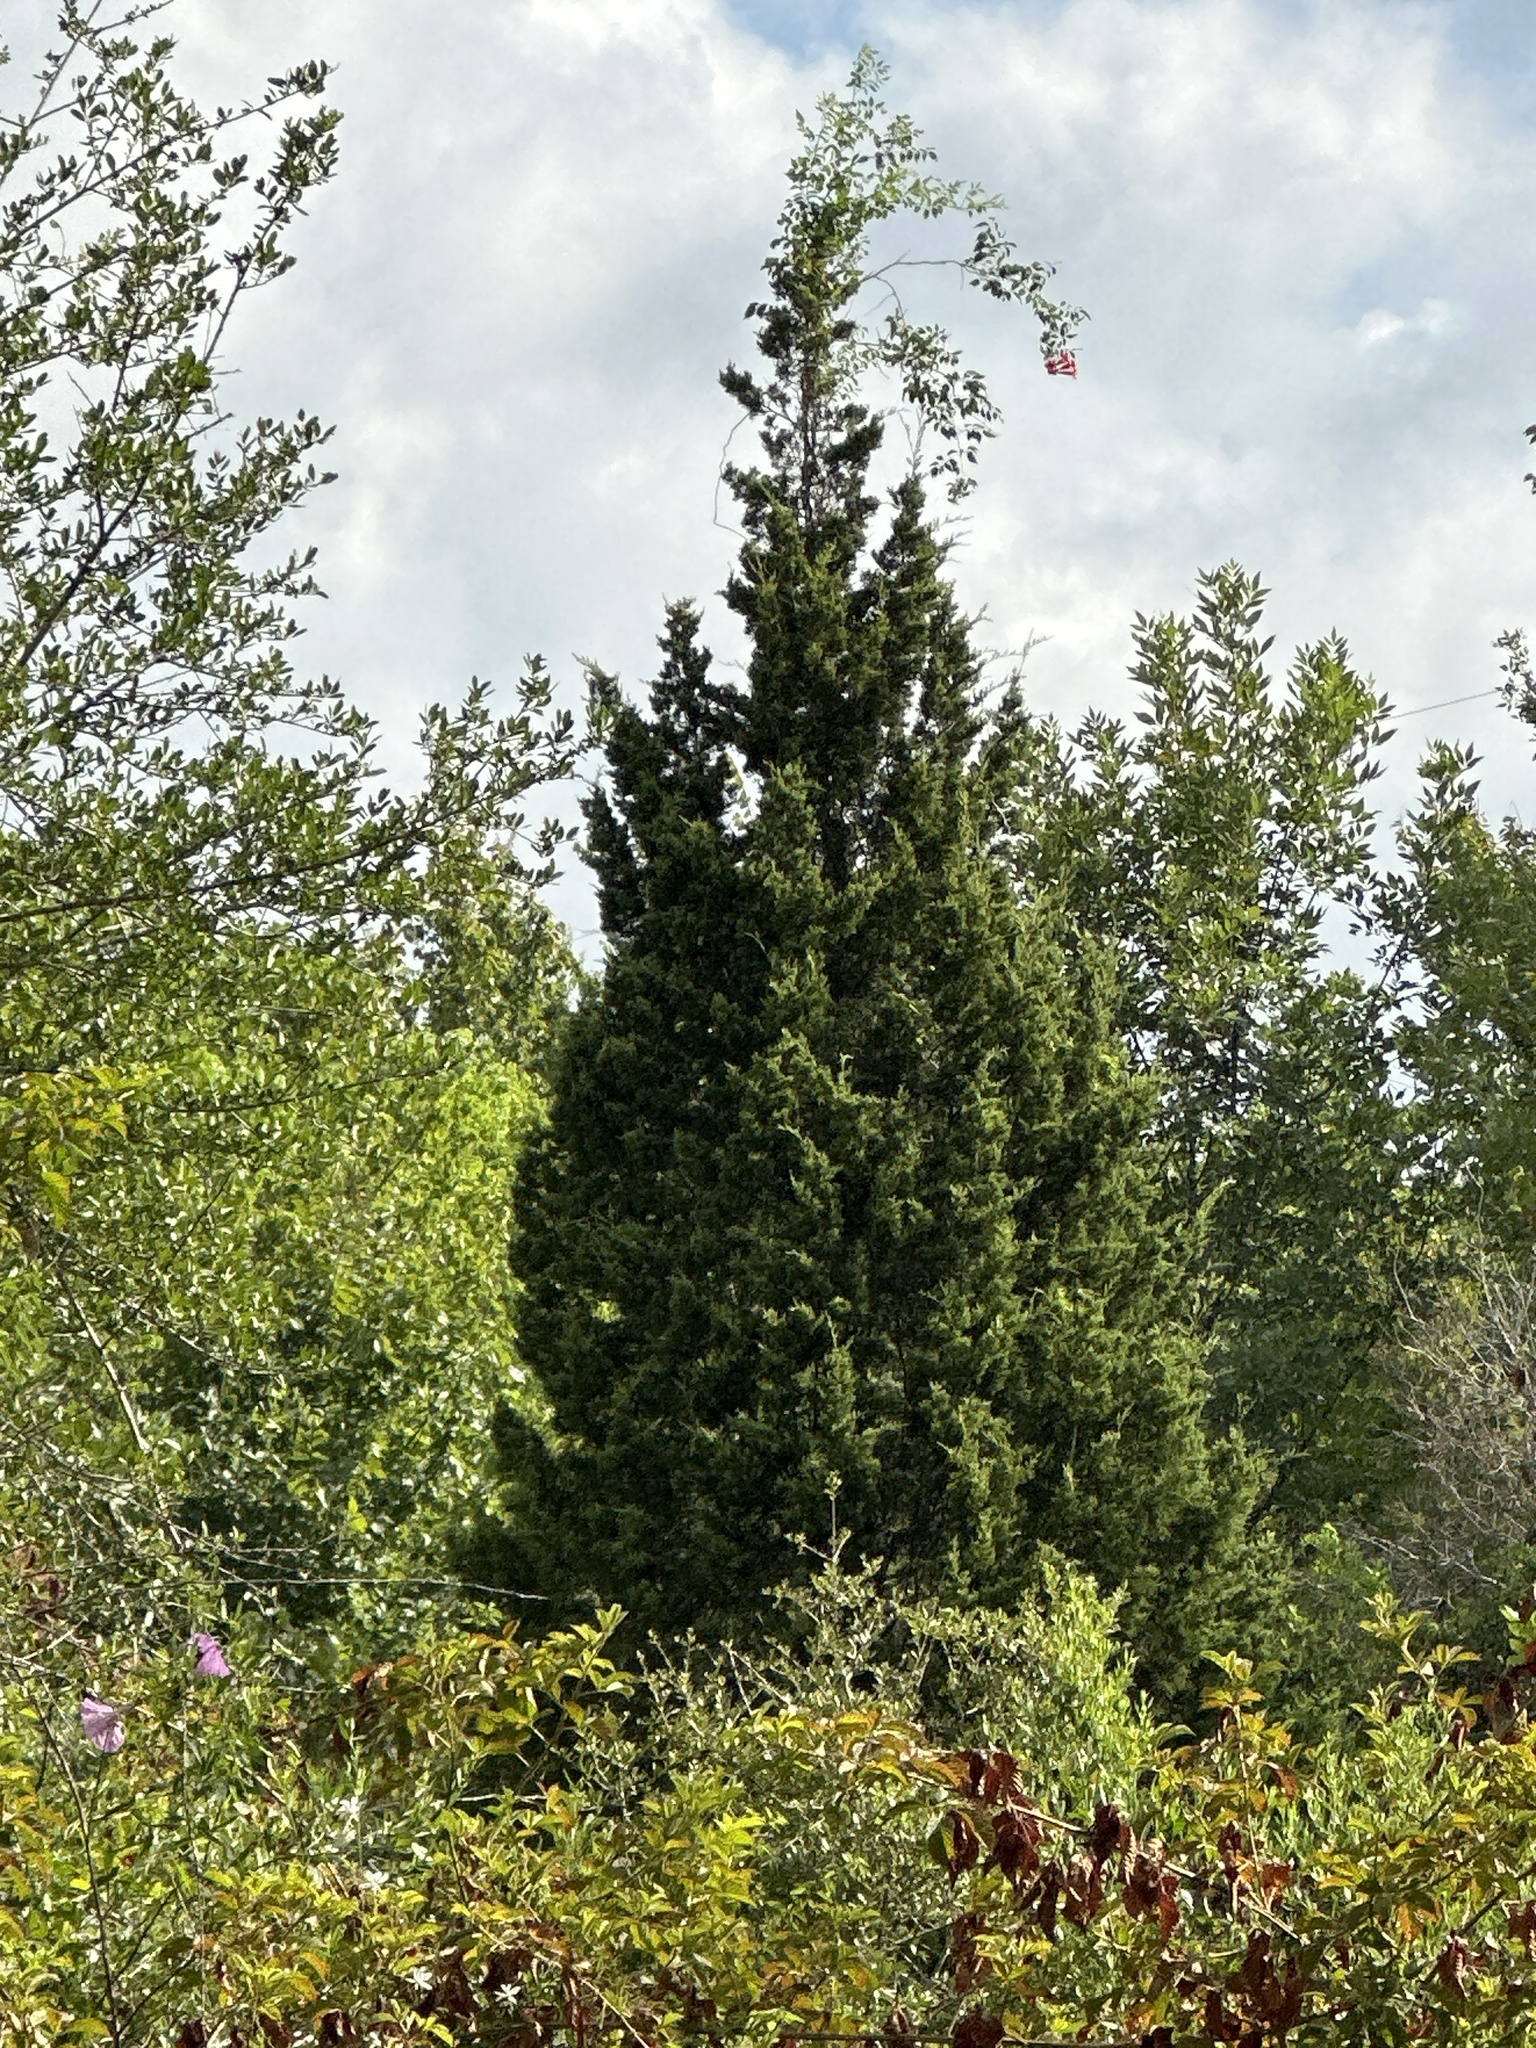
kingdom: Plantae
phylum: Tracheophyta
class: Pinopsida
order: Pinales
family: Cupressaceae
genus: Juniperus
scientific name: Juniperus virginiana
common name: Red juniper
